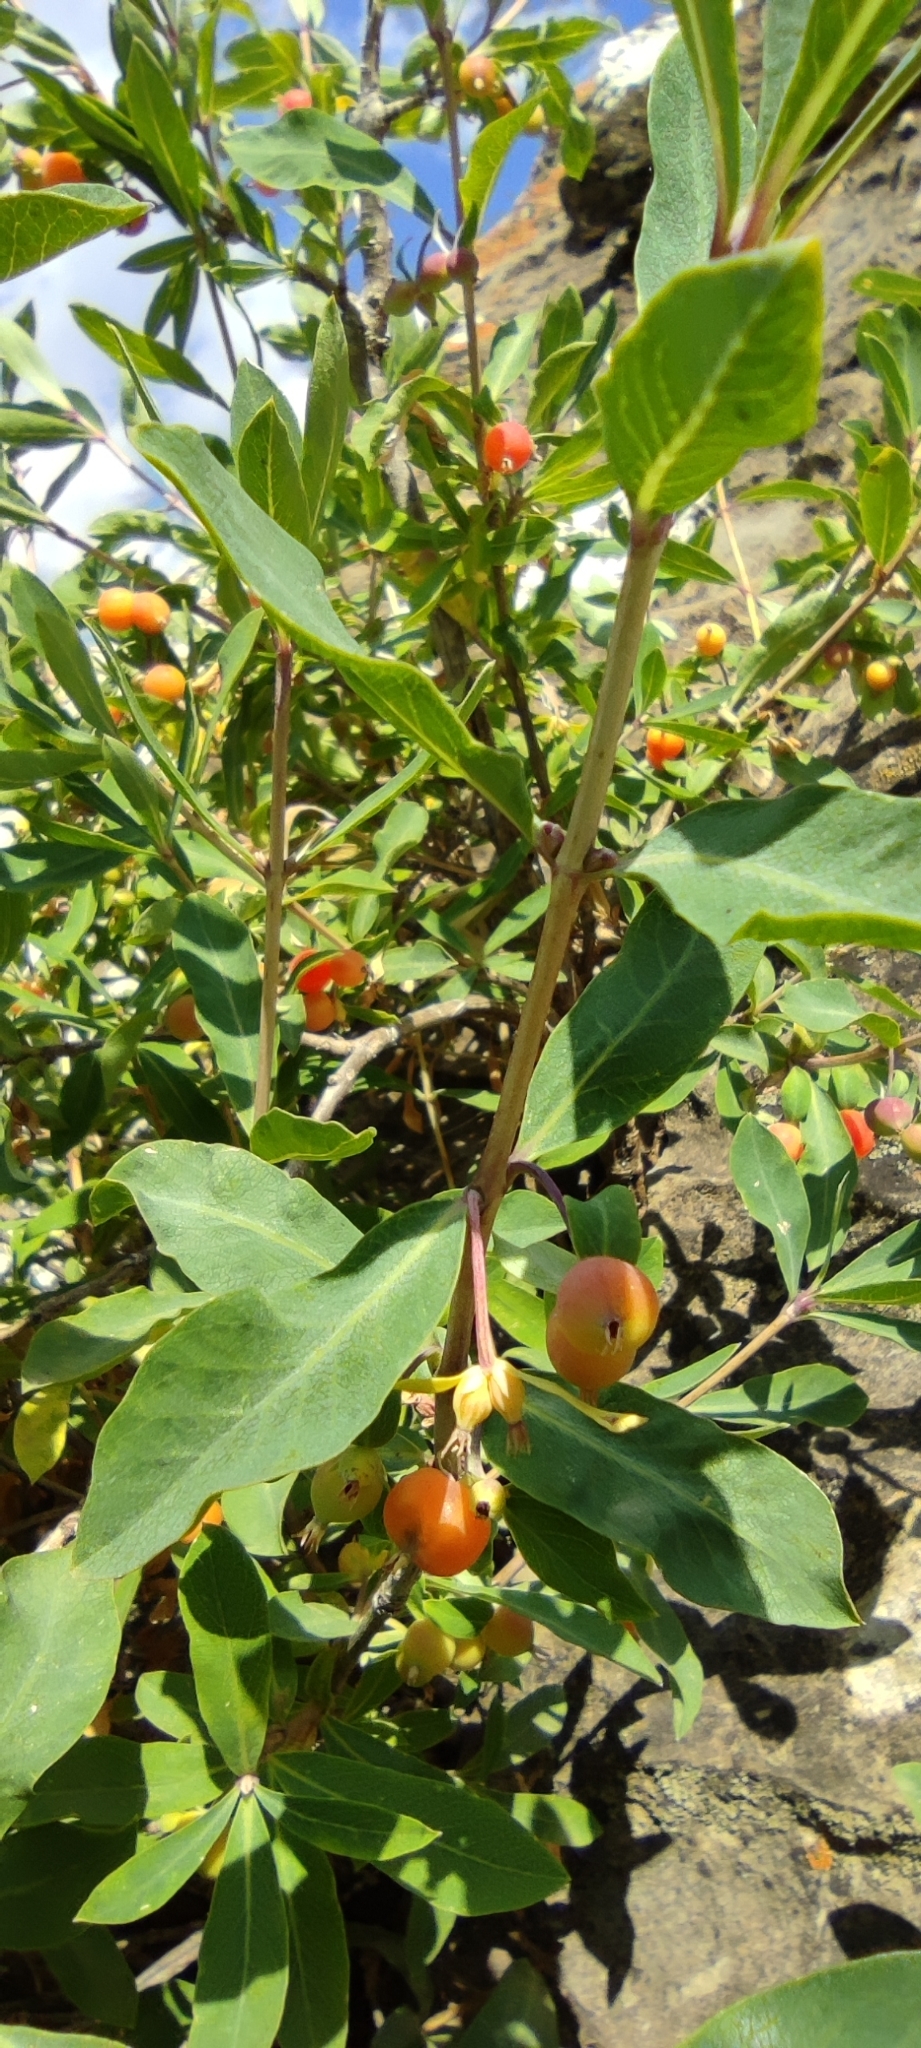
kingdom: Plantae
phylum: Tracheophyta
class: Magnoliopsida
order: Dipsacales
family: Caprifoliaceae
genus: Lonicera
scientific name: Lonicera pyrenaica
